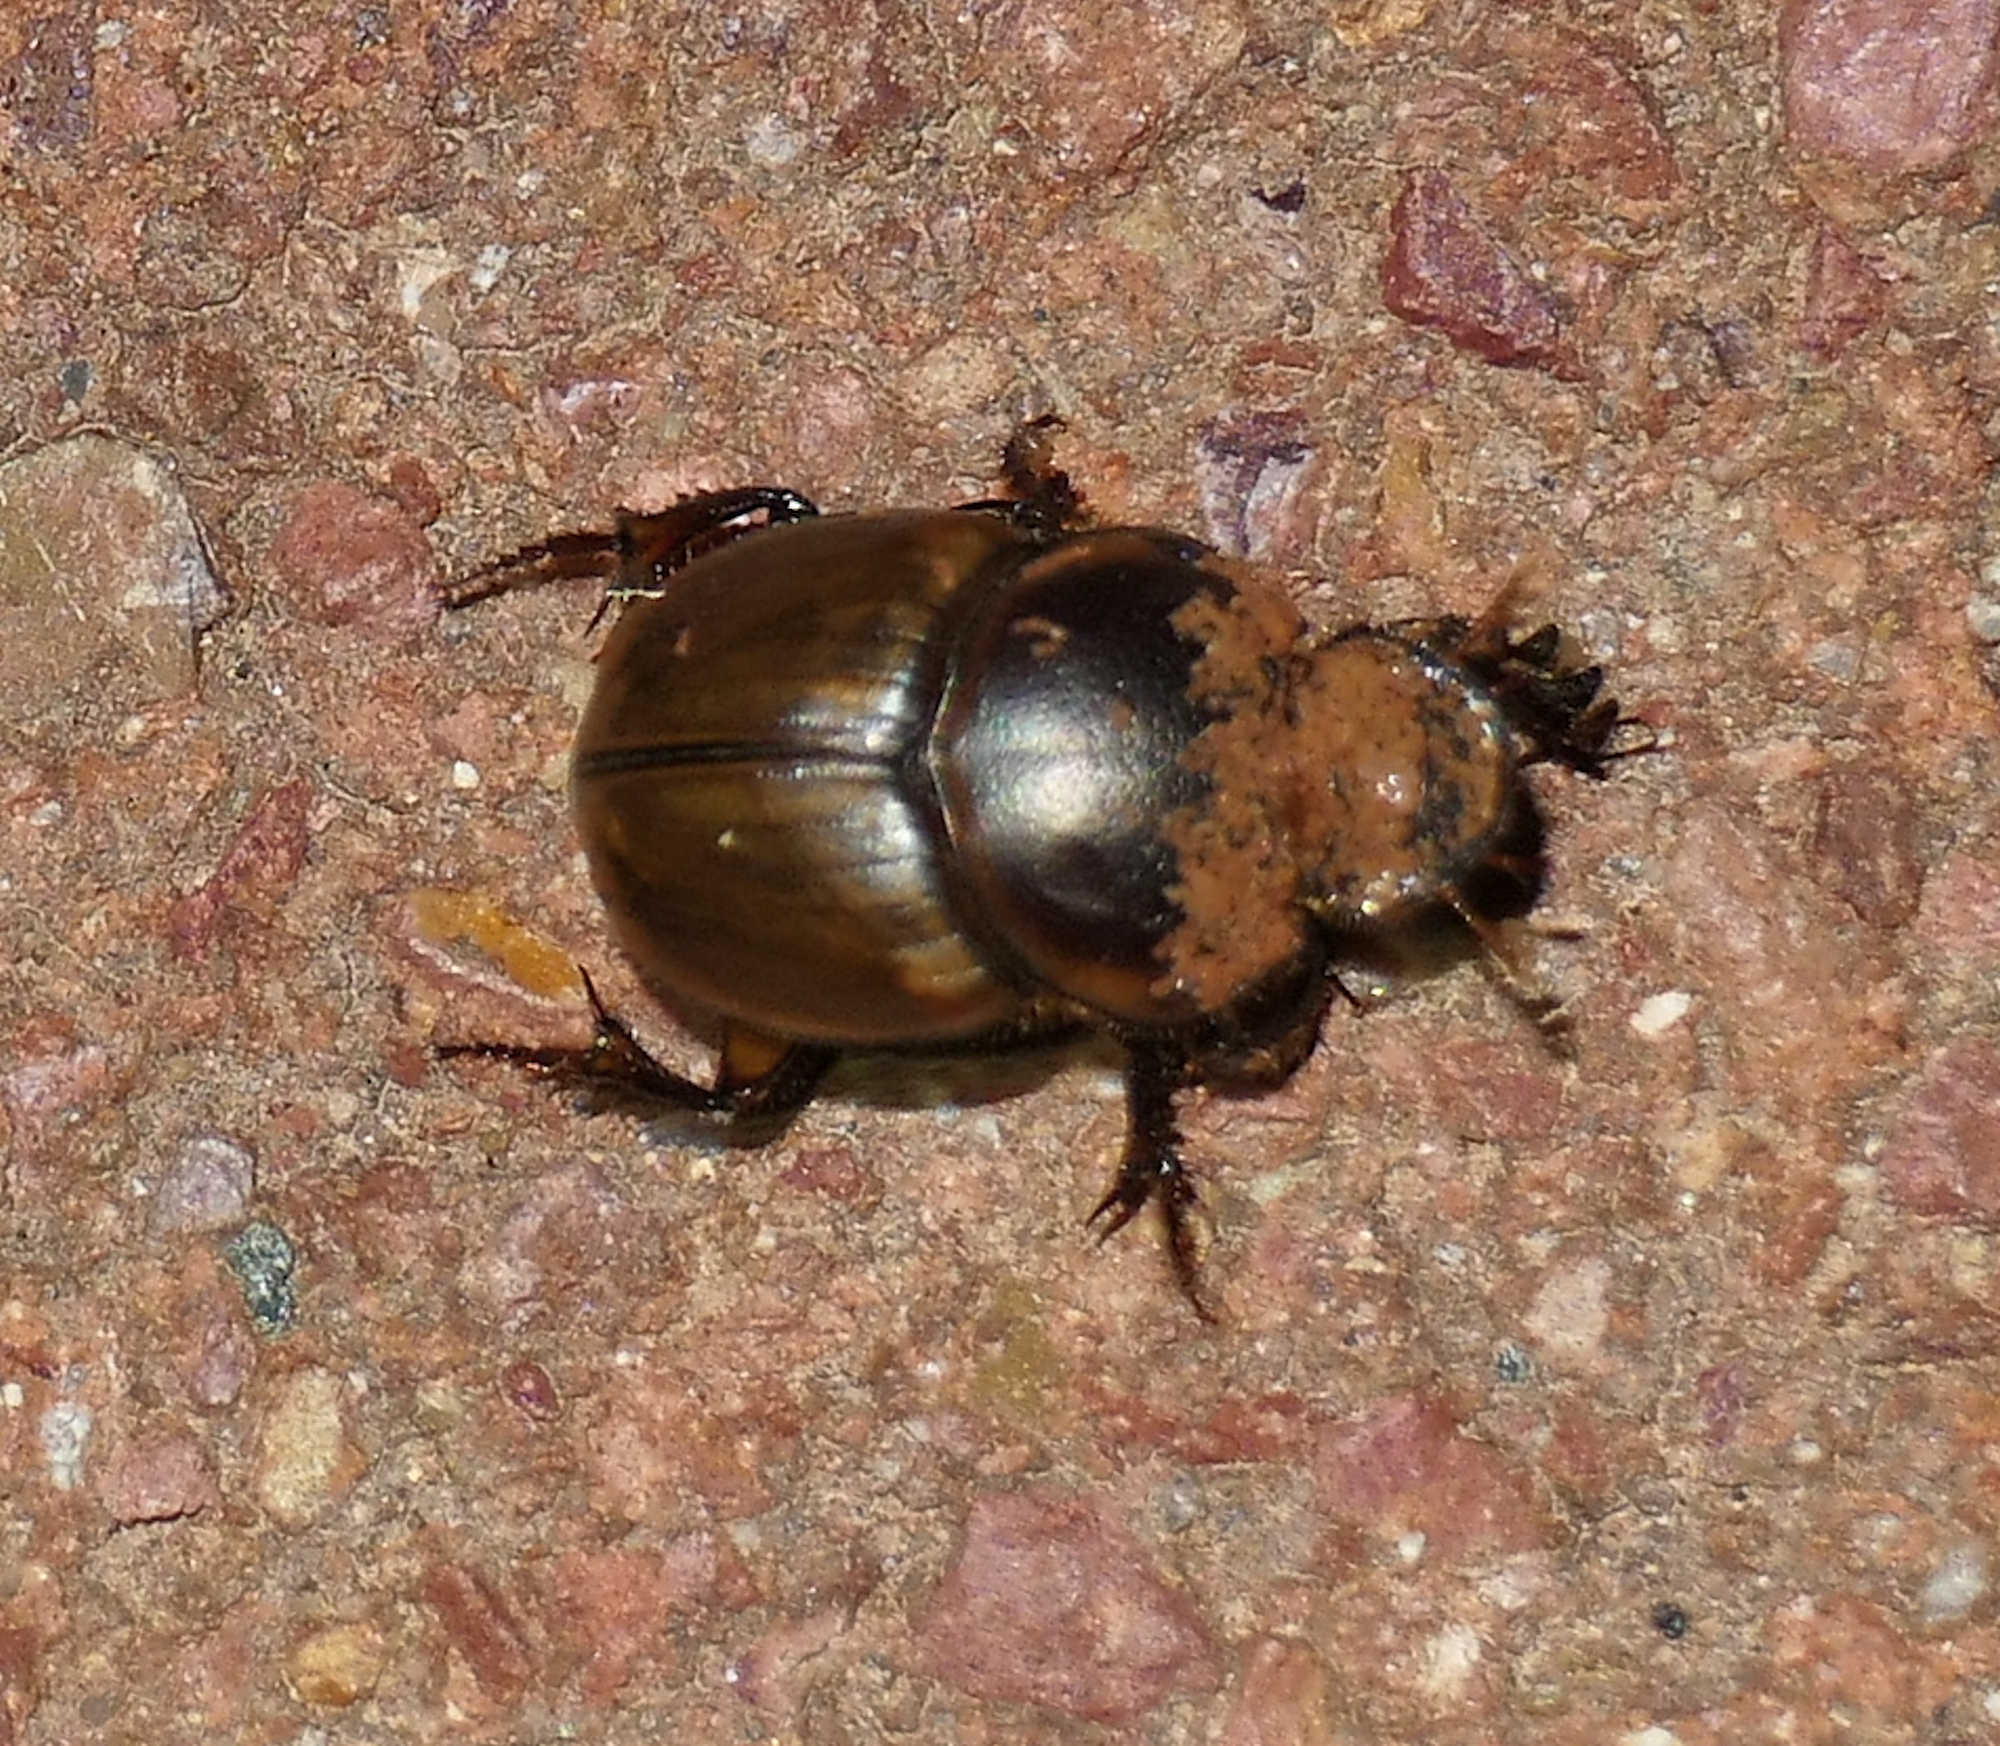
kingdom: Animalia
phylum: Arthropoda
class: Insecta
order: Coleoptera
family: Scarabaeidae
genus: Digitonthophagus
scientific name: Digitonthophagus gazella
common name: Brown dung beetle
